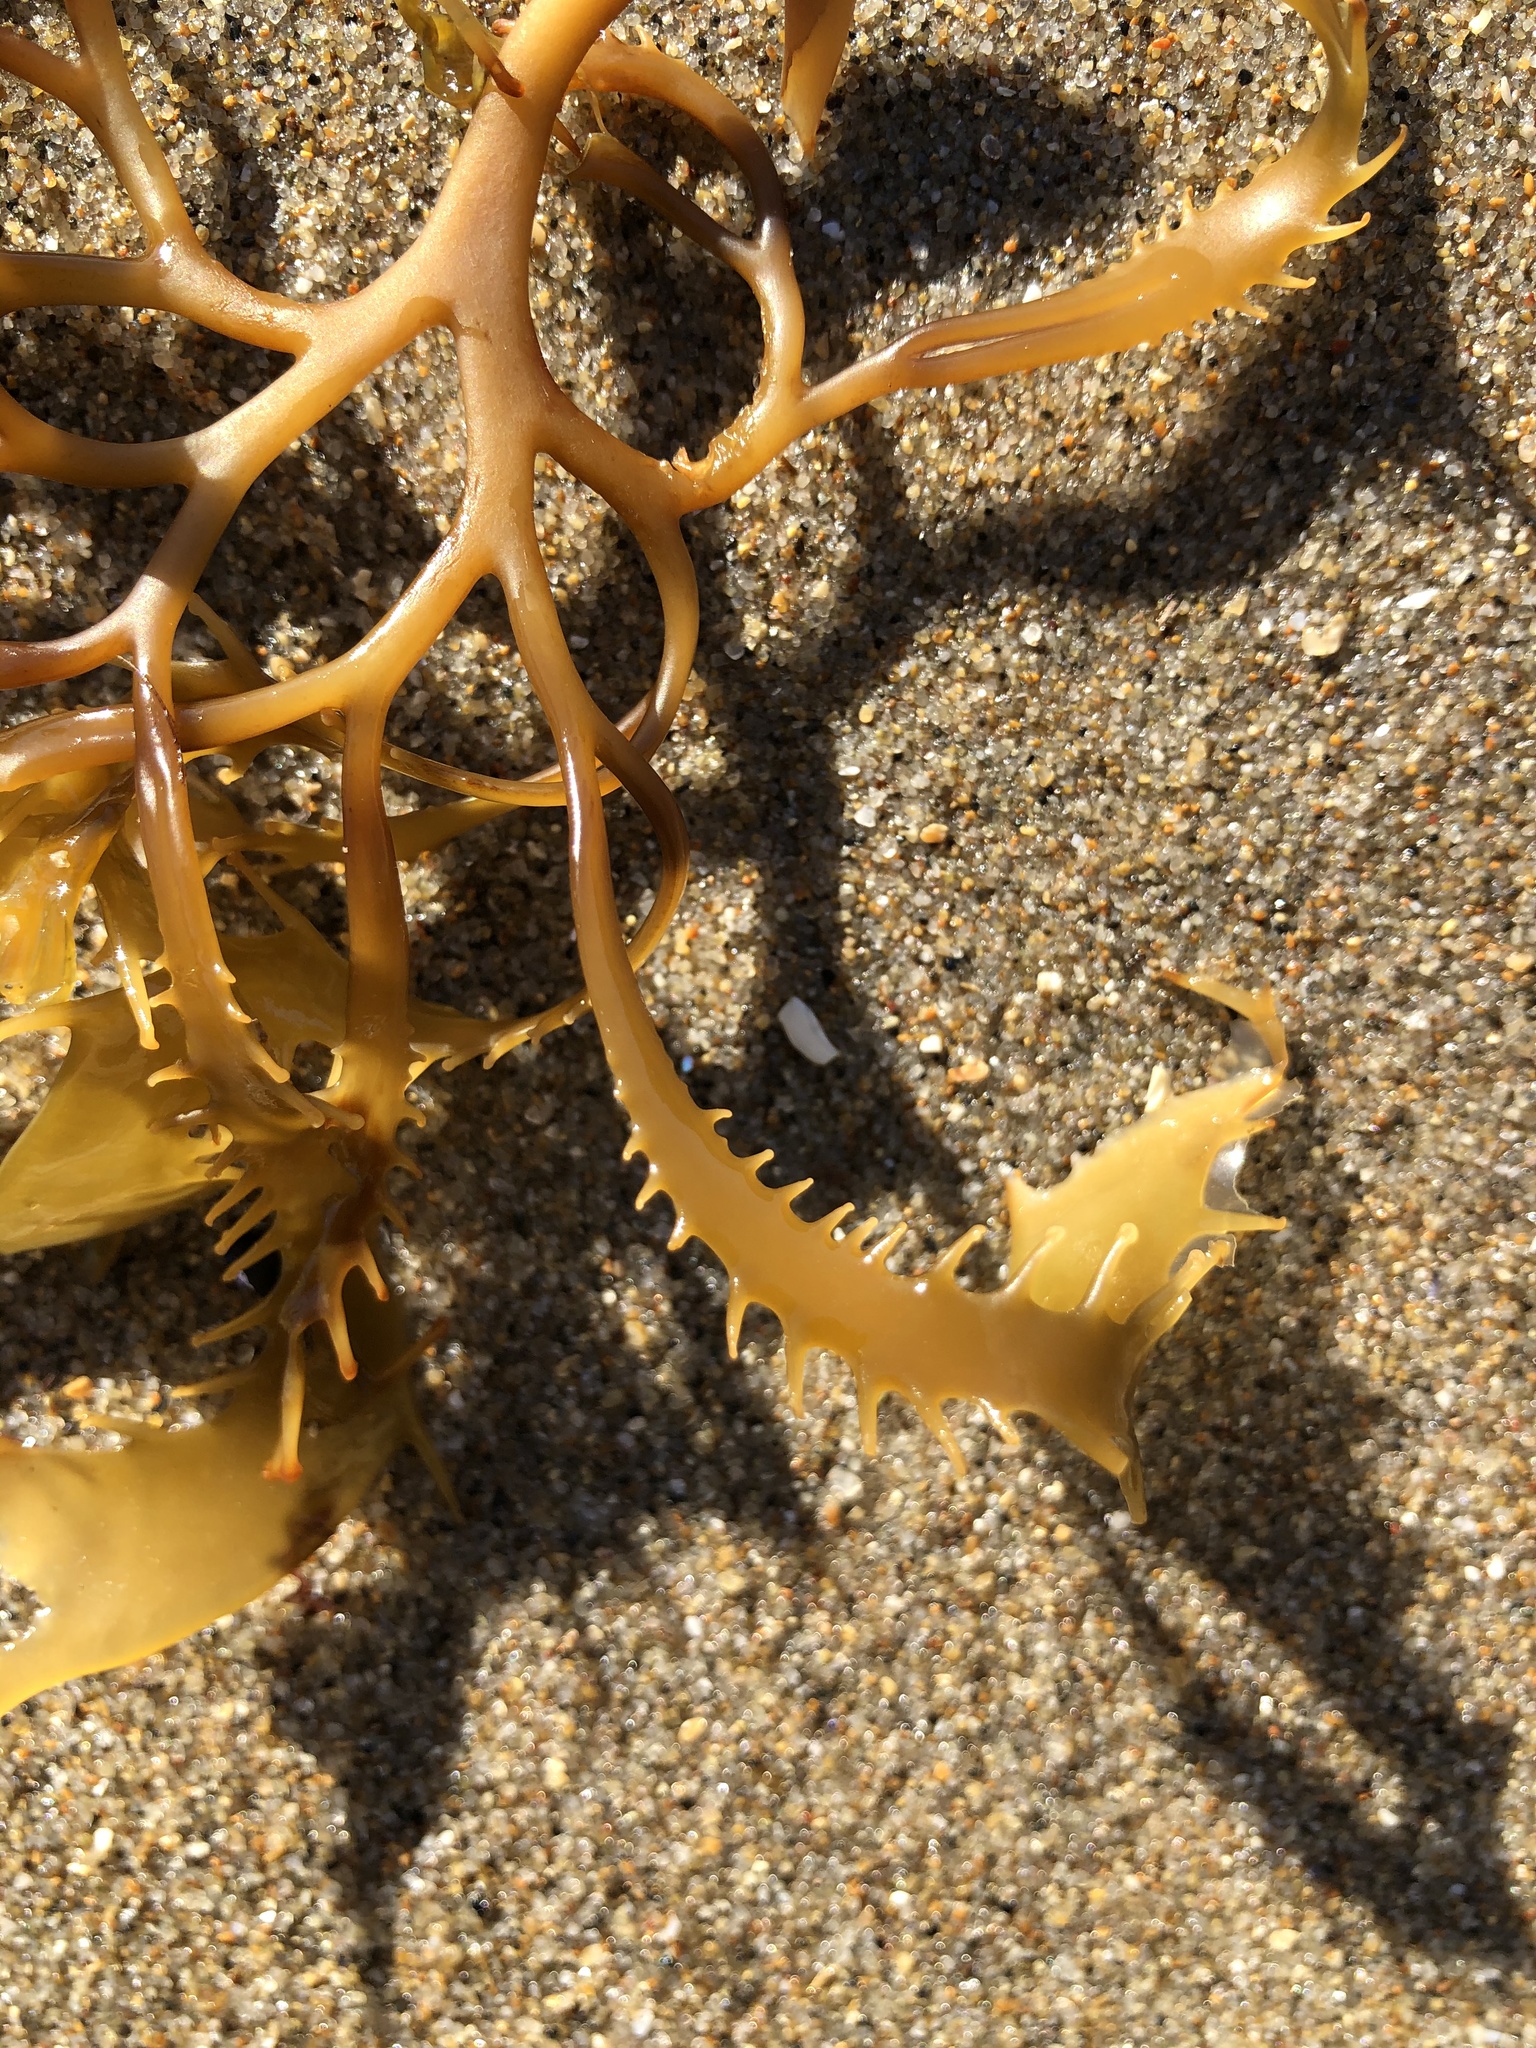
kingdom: Chromista
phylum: Ochrophyta
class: Phaeophyceae
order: Laminariales
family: Lessoniaceae
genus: Egregia
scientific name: Egregia menziesii
